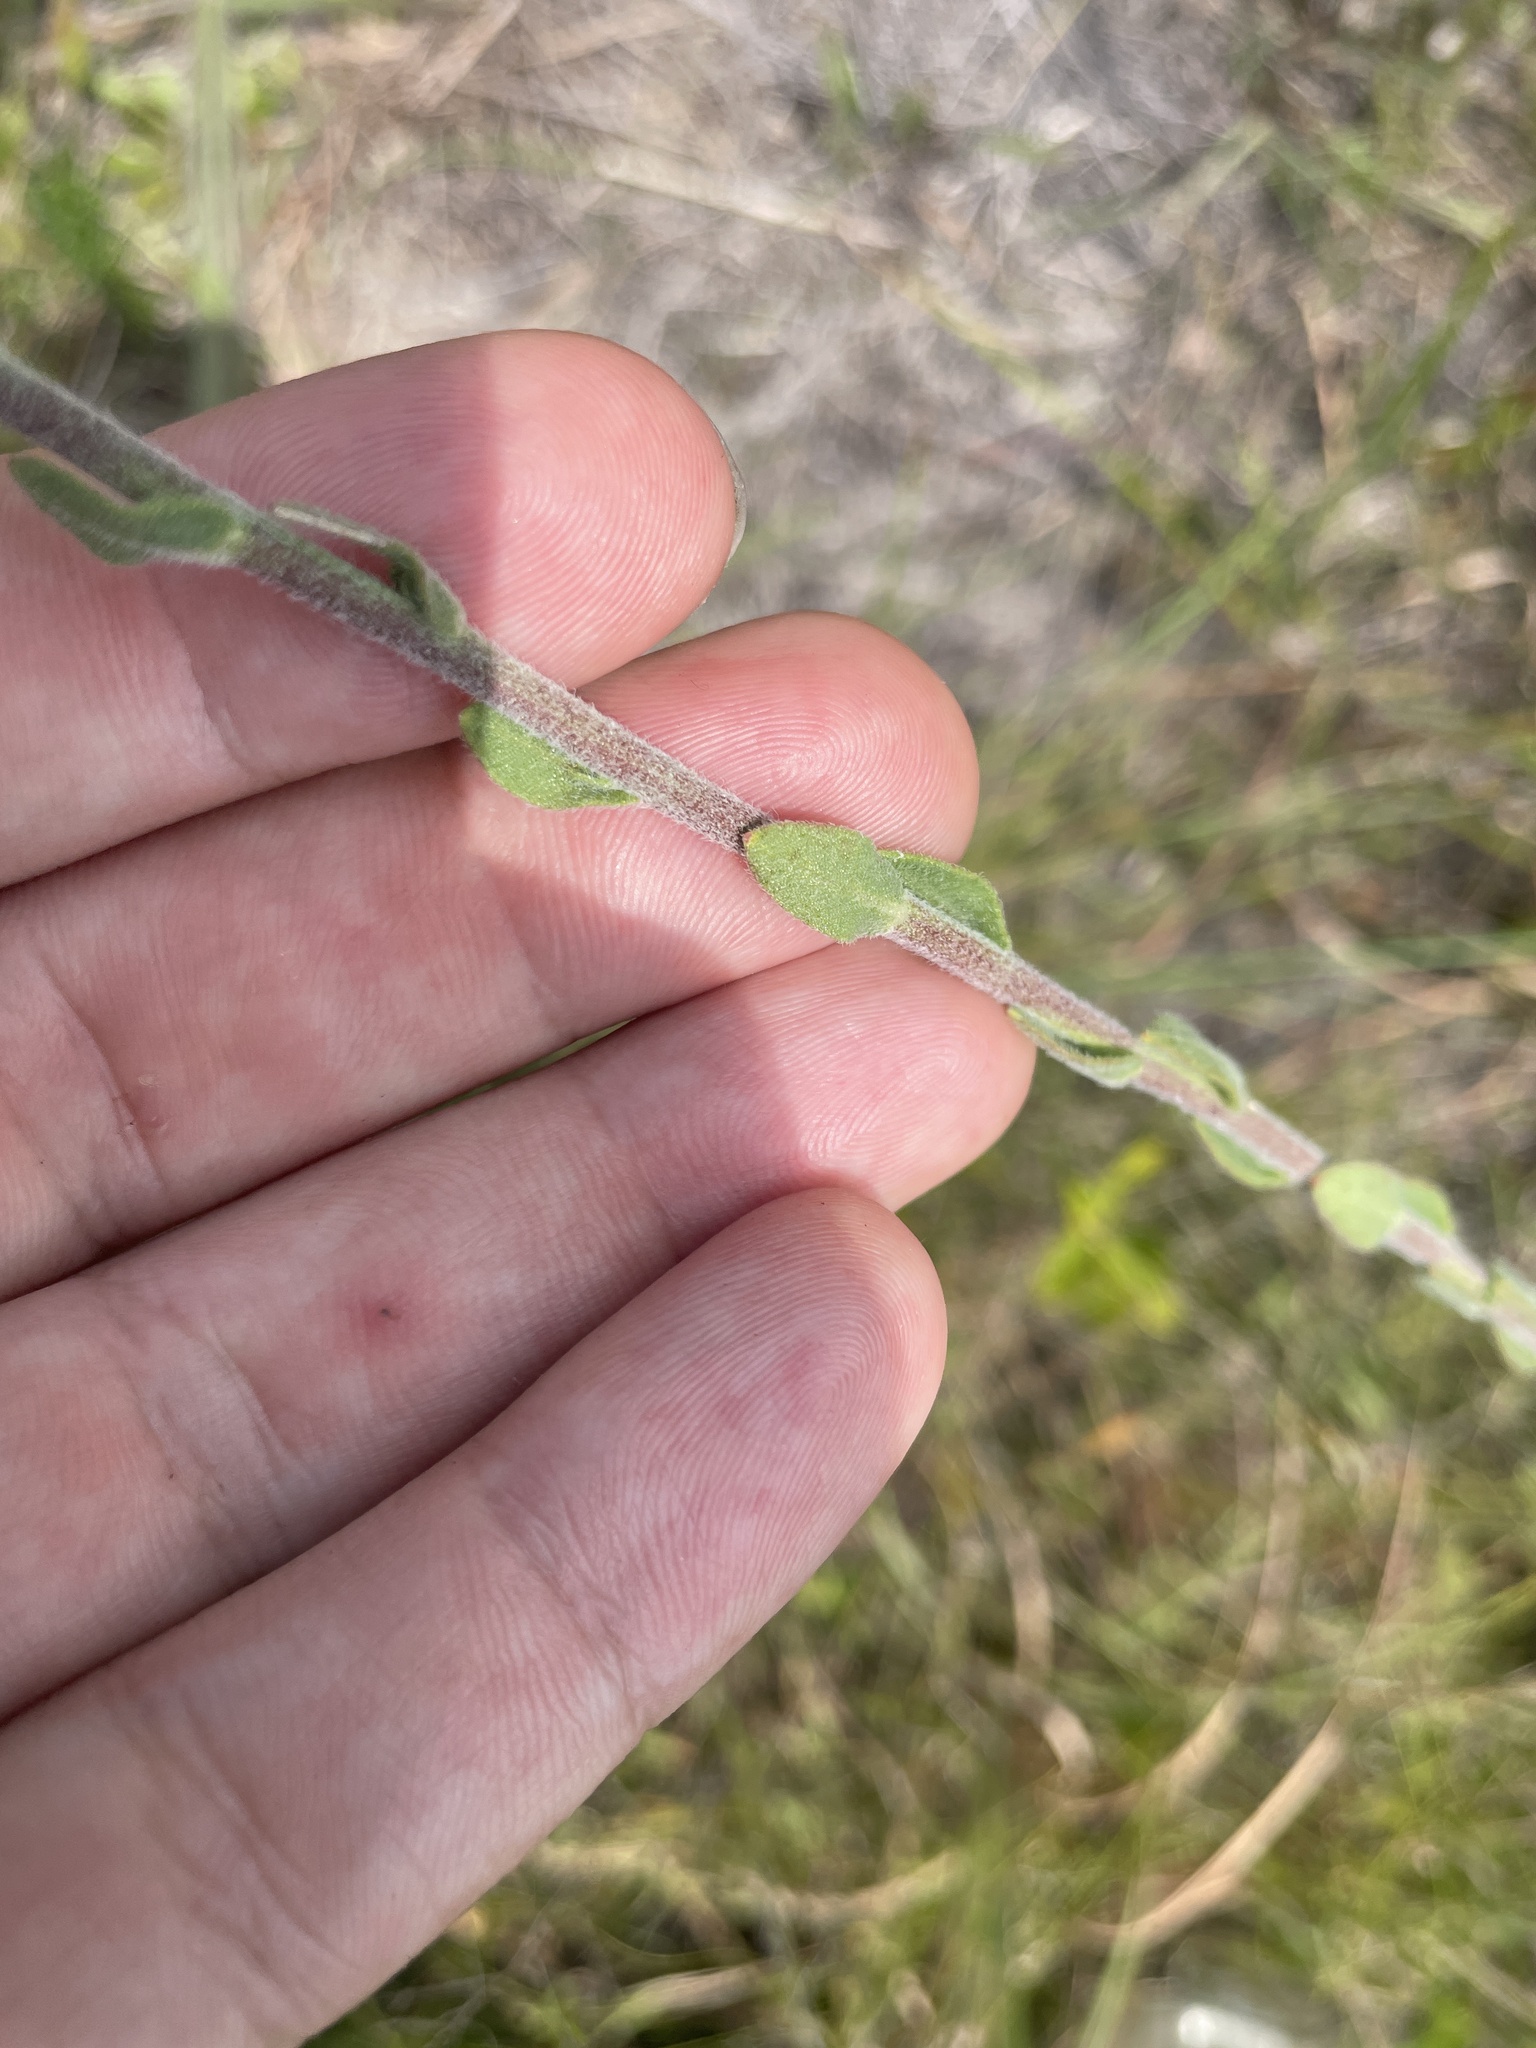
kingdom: Plantae
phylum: Tracheophyta
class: Magnoliopsida
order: Asterales
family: Asteraceae
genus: Carphephorus
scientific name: Carphephorus tomentosus
